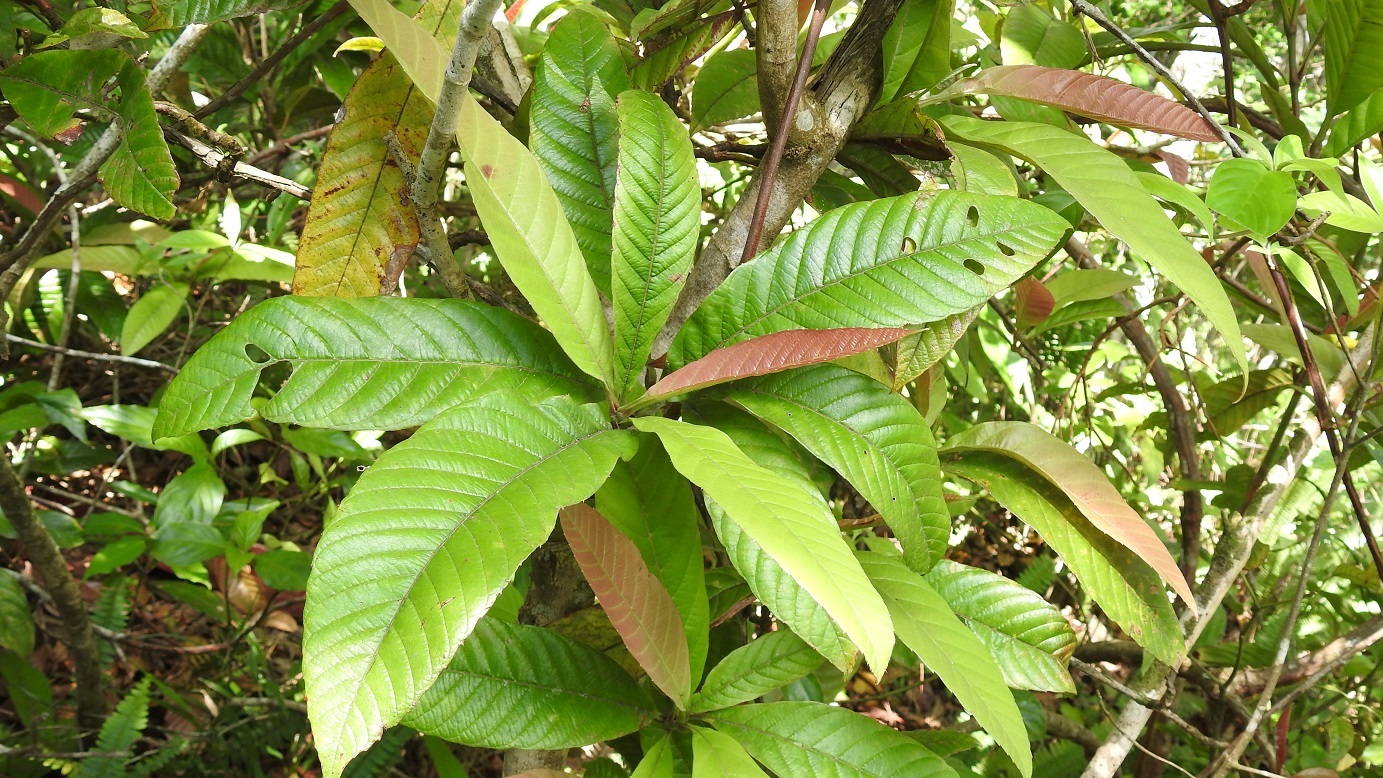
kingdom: Plantae
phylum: Tracheophyta
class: Magnoliopsida
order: Dilleniales
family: Dilleniaceae
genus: Tetracera
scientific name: Tetracera volubilis
